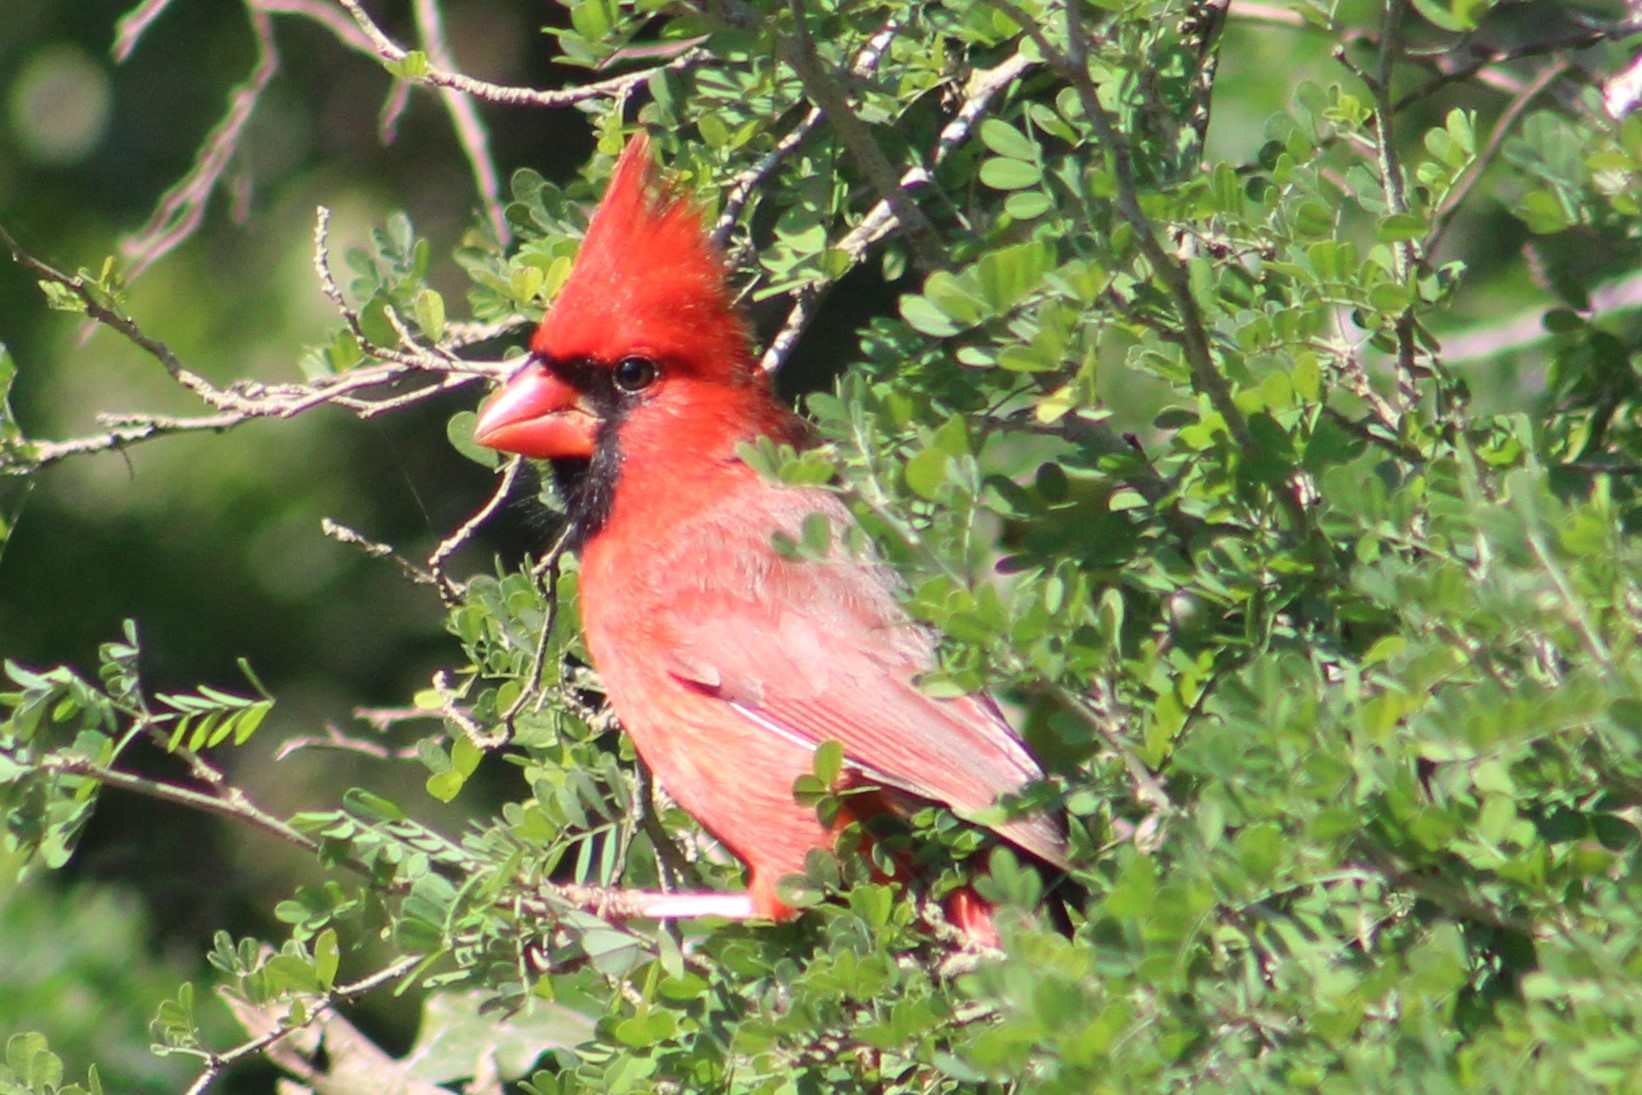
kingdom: Animalia
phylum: Chordata
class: Aves
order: Passeriformes
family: Cardinalidae
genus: Cardinalis
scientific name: Cardinalis cardinalis
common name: Northern cardinal
